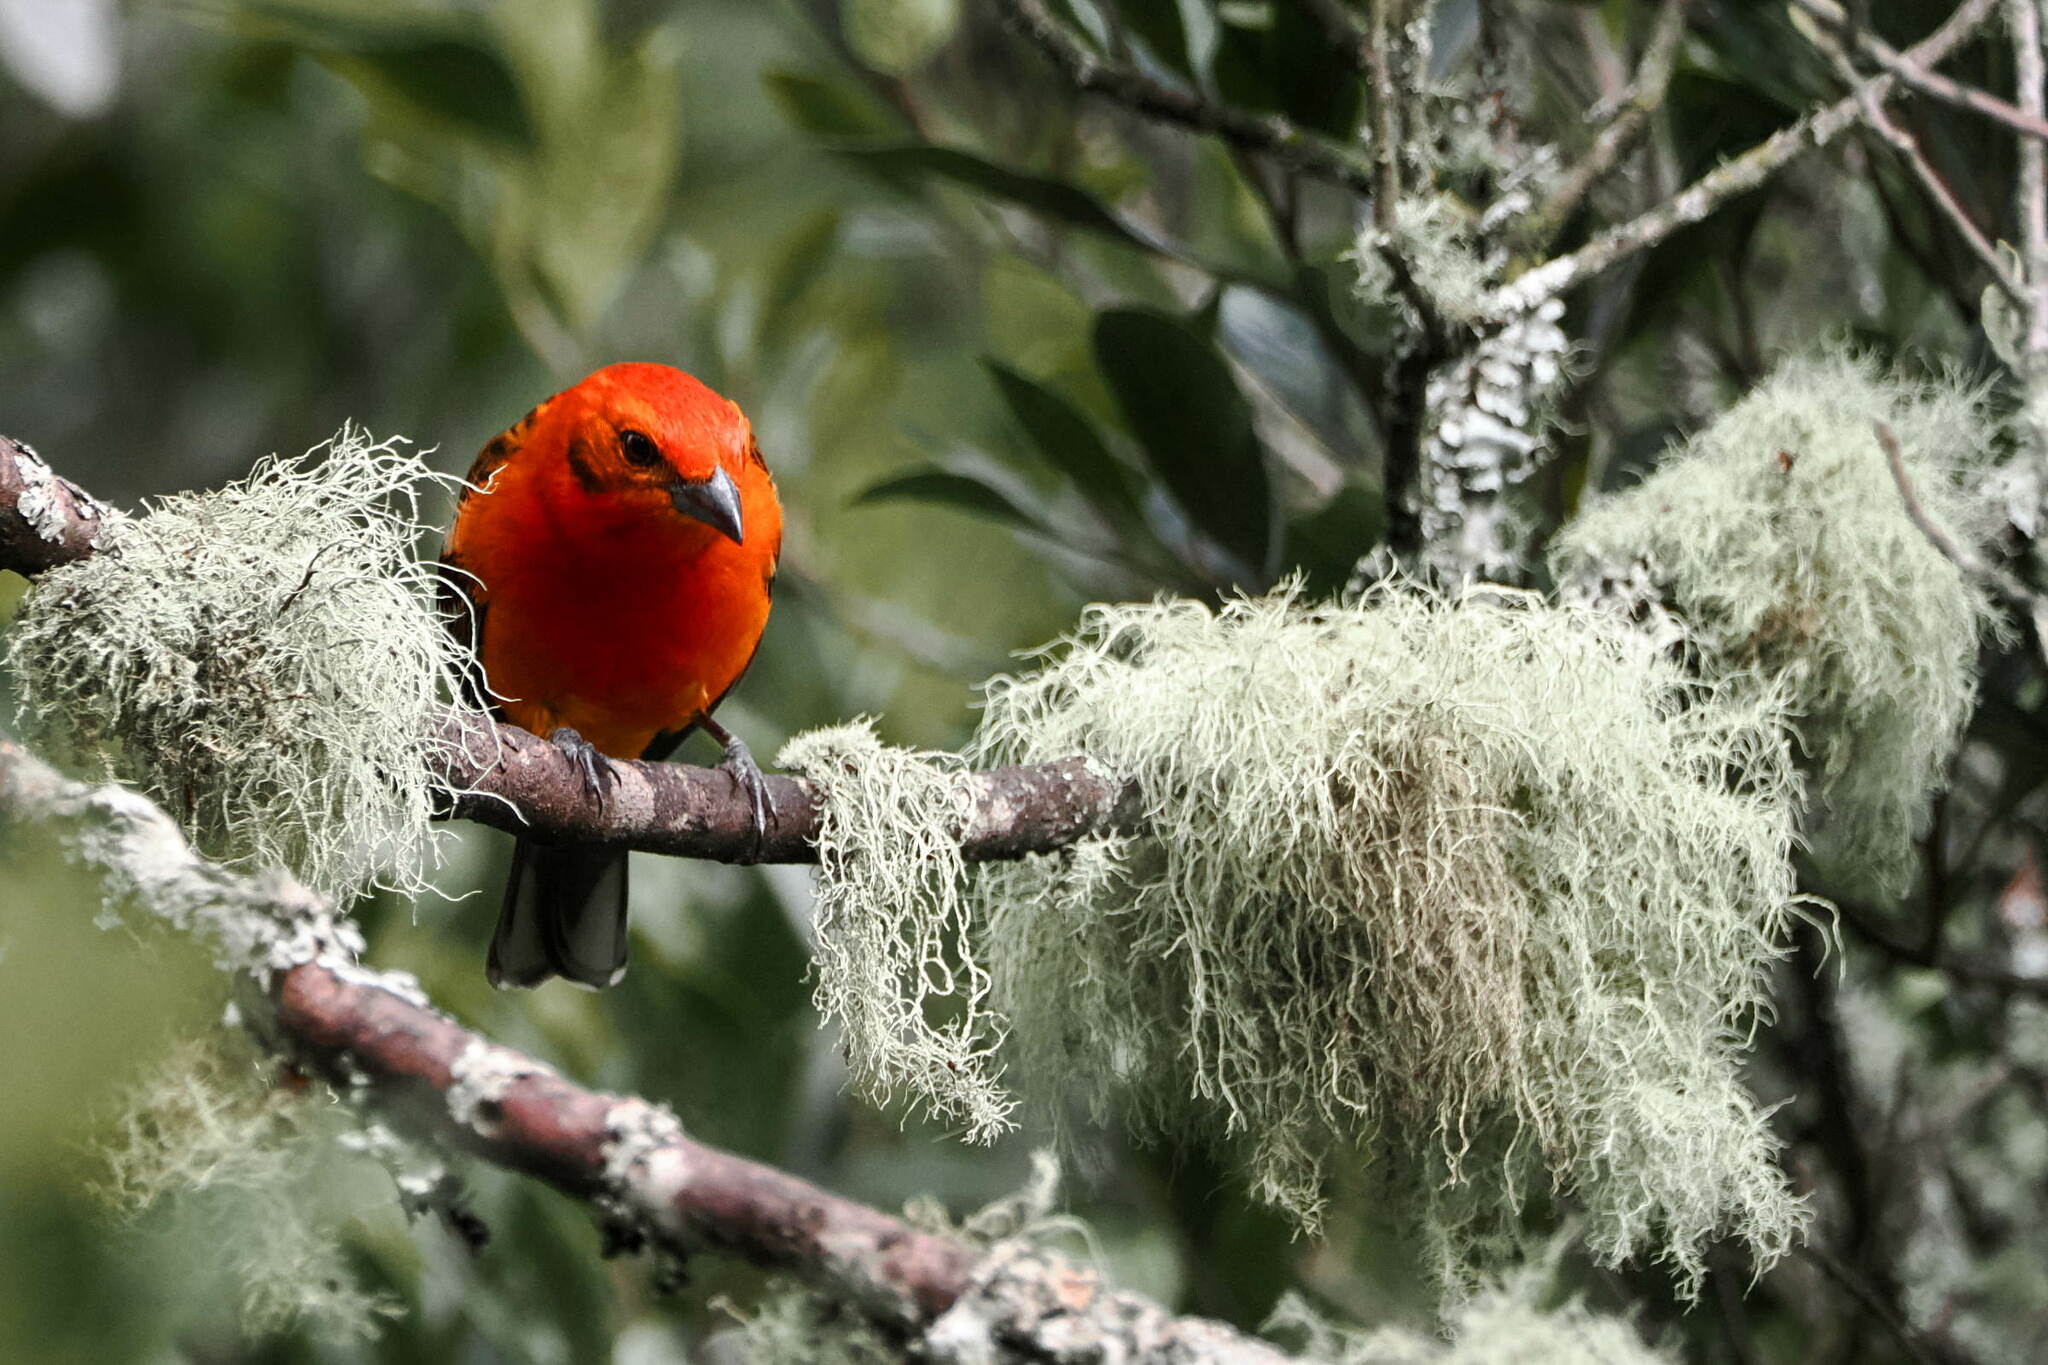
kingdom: Animalia
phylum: Chordata
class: Aves
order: Passeriformes
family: Cardinalidae
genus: Piranga
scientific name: Piranga bidentata
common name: Flame-colored tanager
